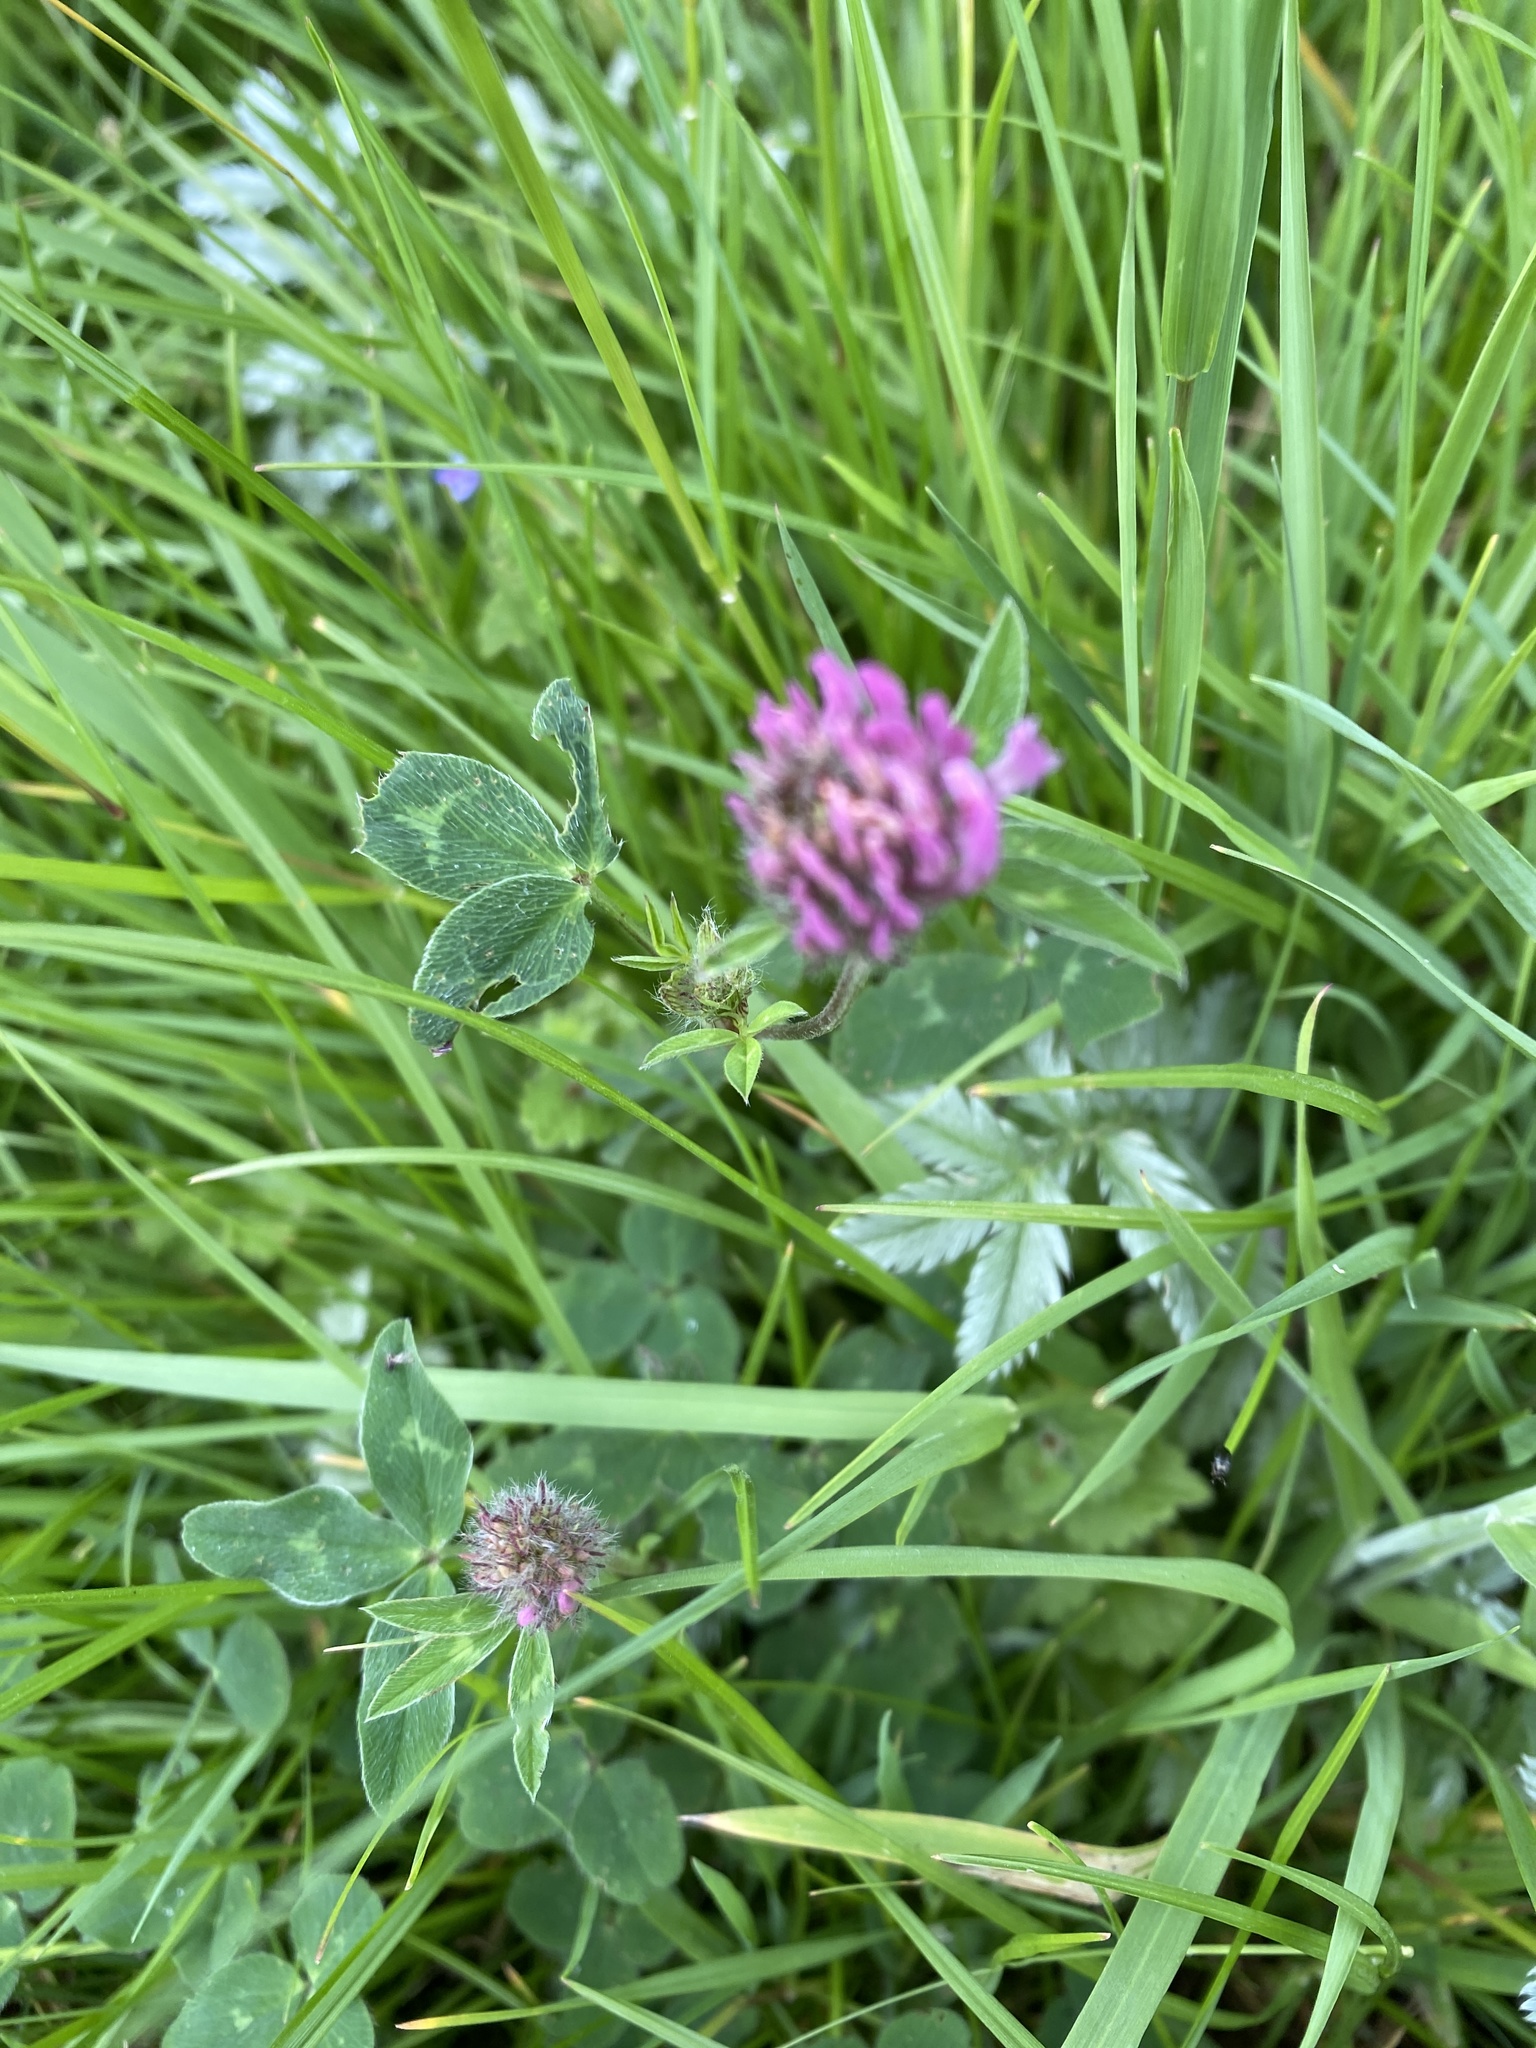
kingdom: Plantae
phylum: Tracheophyta
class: Magnoliopsida
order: Fabales
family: Fabaceae
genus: Trifolium
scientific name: Trifolium pratense
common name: Red clover
